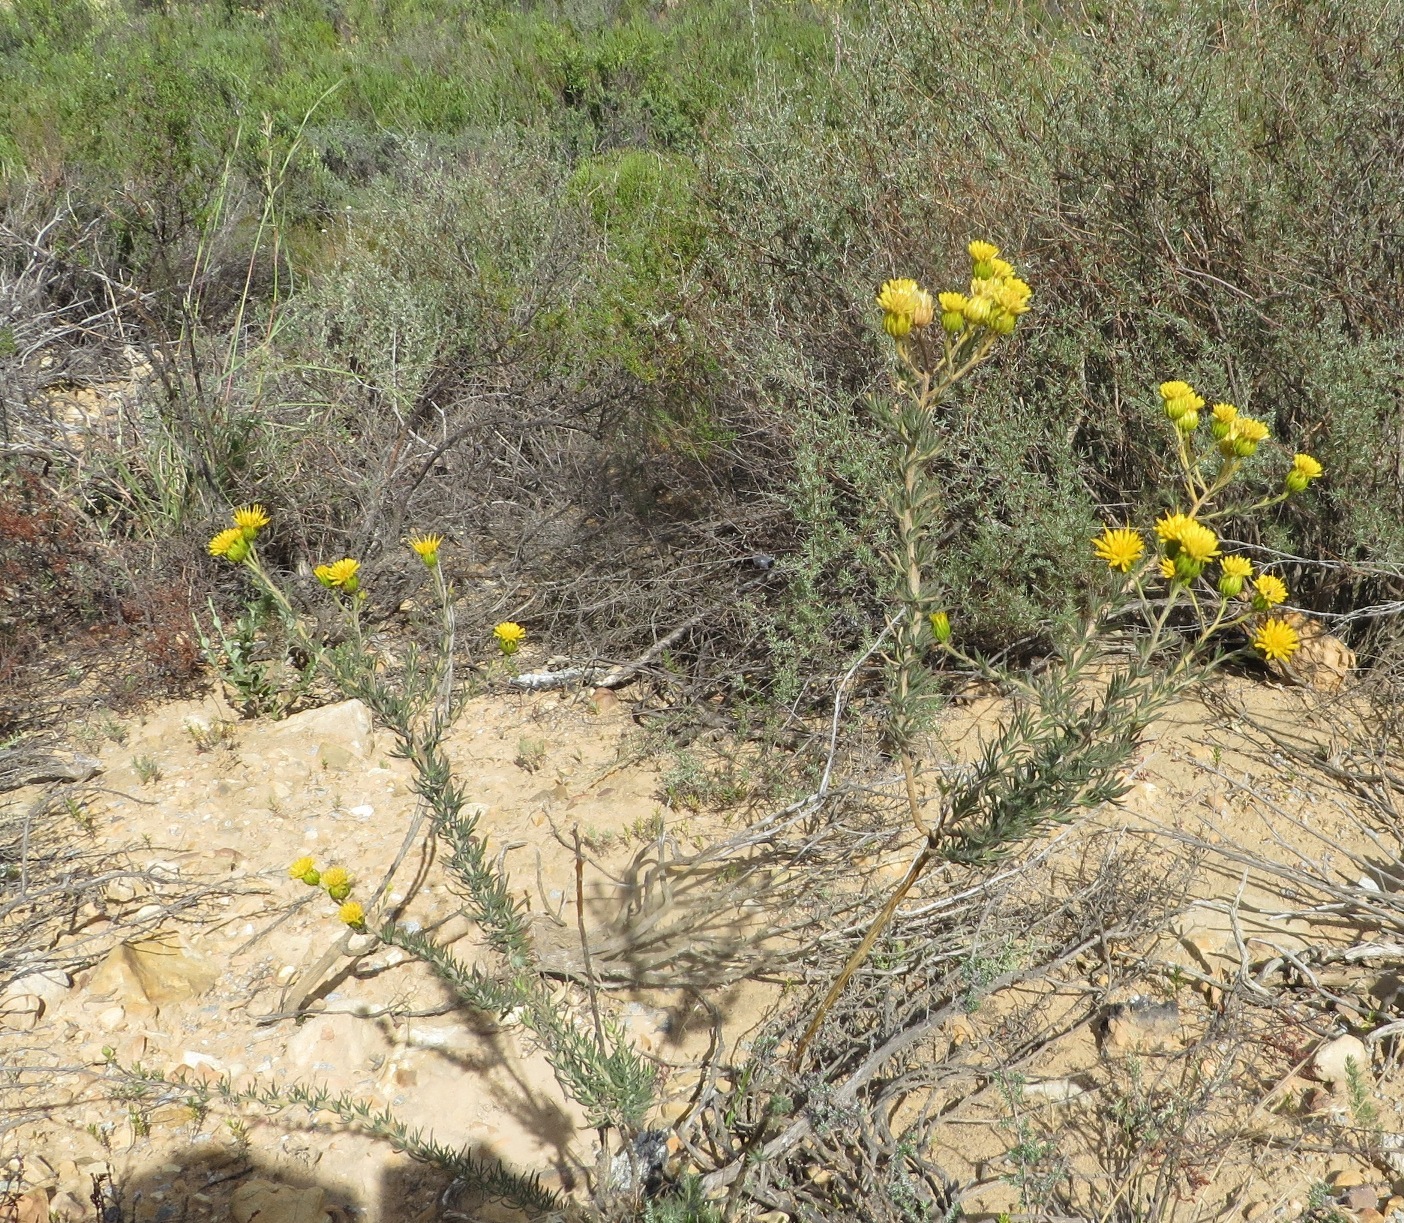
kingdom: Plantae
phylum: Tracheophyta
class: Magnoliopsida
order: Asterales
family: Asteraceae
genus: Pteronia
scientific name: Pteronia camphorata
